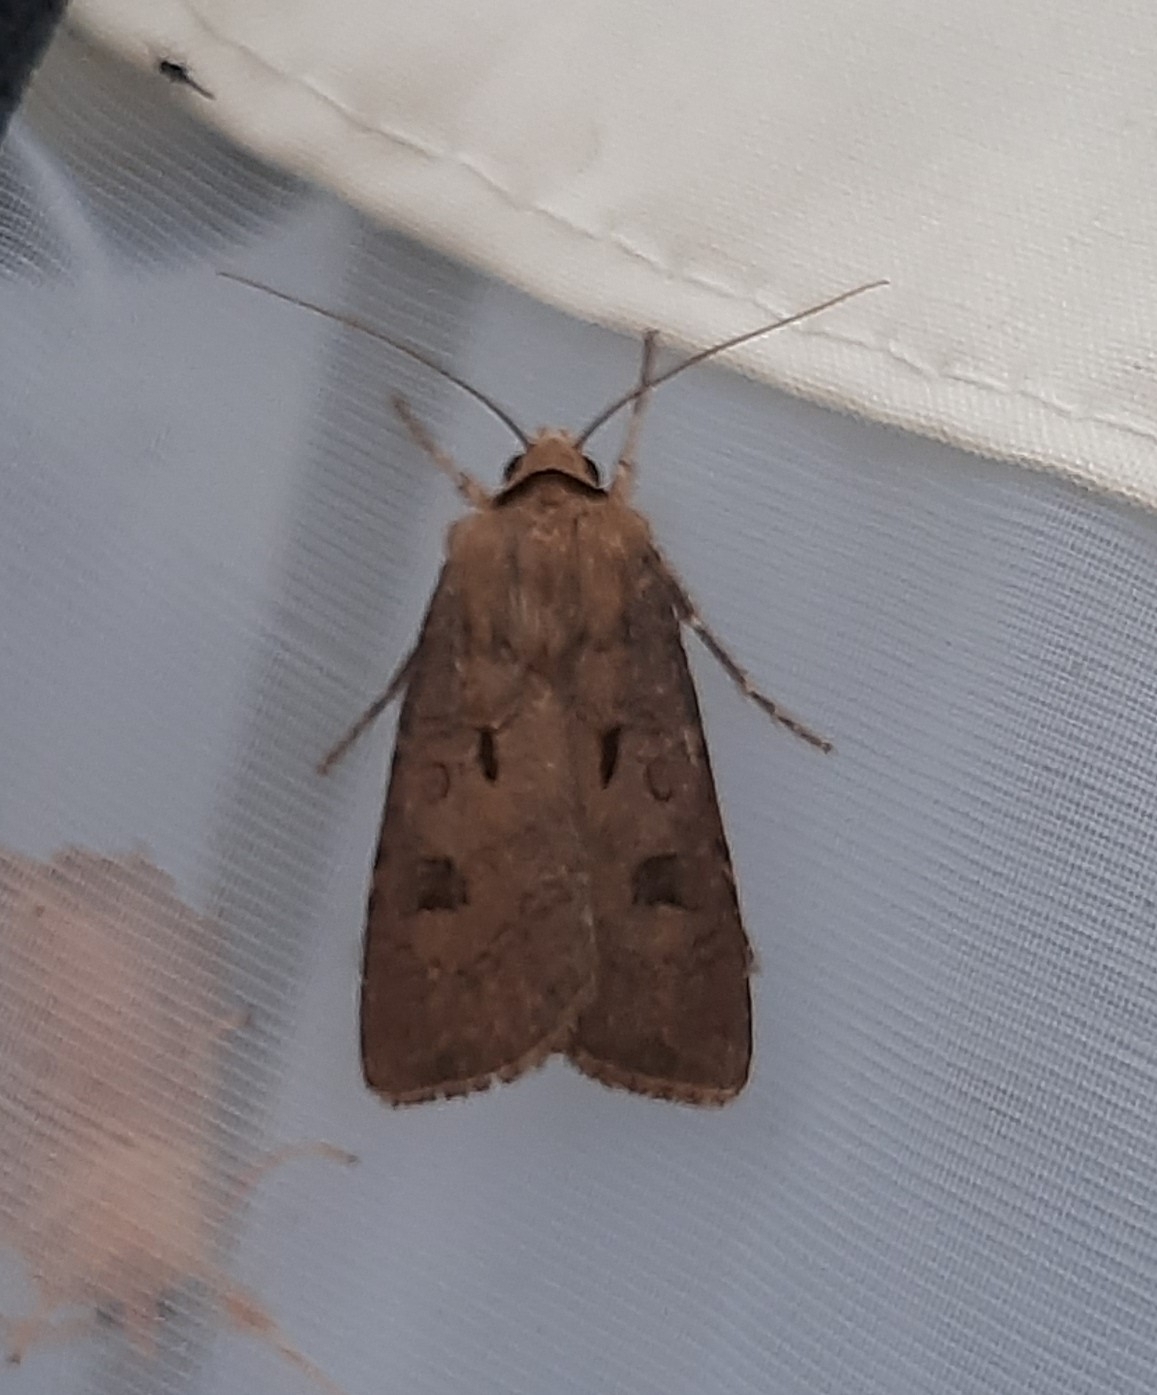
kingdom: Animalia
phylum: Arthropoda
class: Insecta
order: Lepidoptera
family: Noctuidae
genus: Agrotis
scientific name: Agrotis exclamationis
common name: Heart and dart
